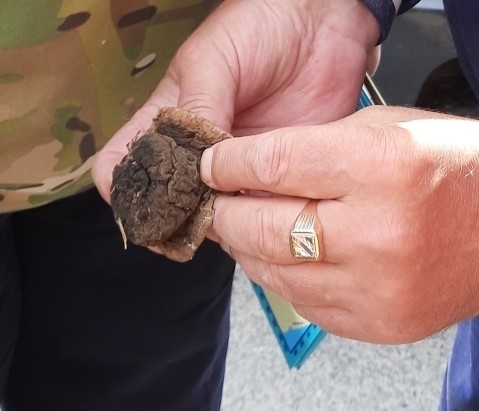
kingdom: Fungi
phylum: Ascomycota
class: Pezizomycetes
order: Pezizales
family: Sarcosomataceae
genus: Sarcosoma
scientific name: Sarcosoma globosum
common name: Charred-pancake cup
